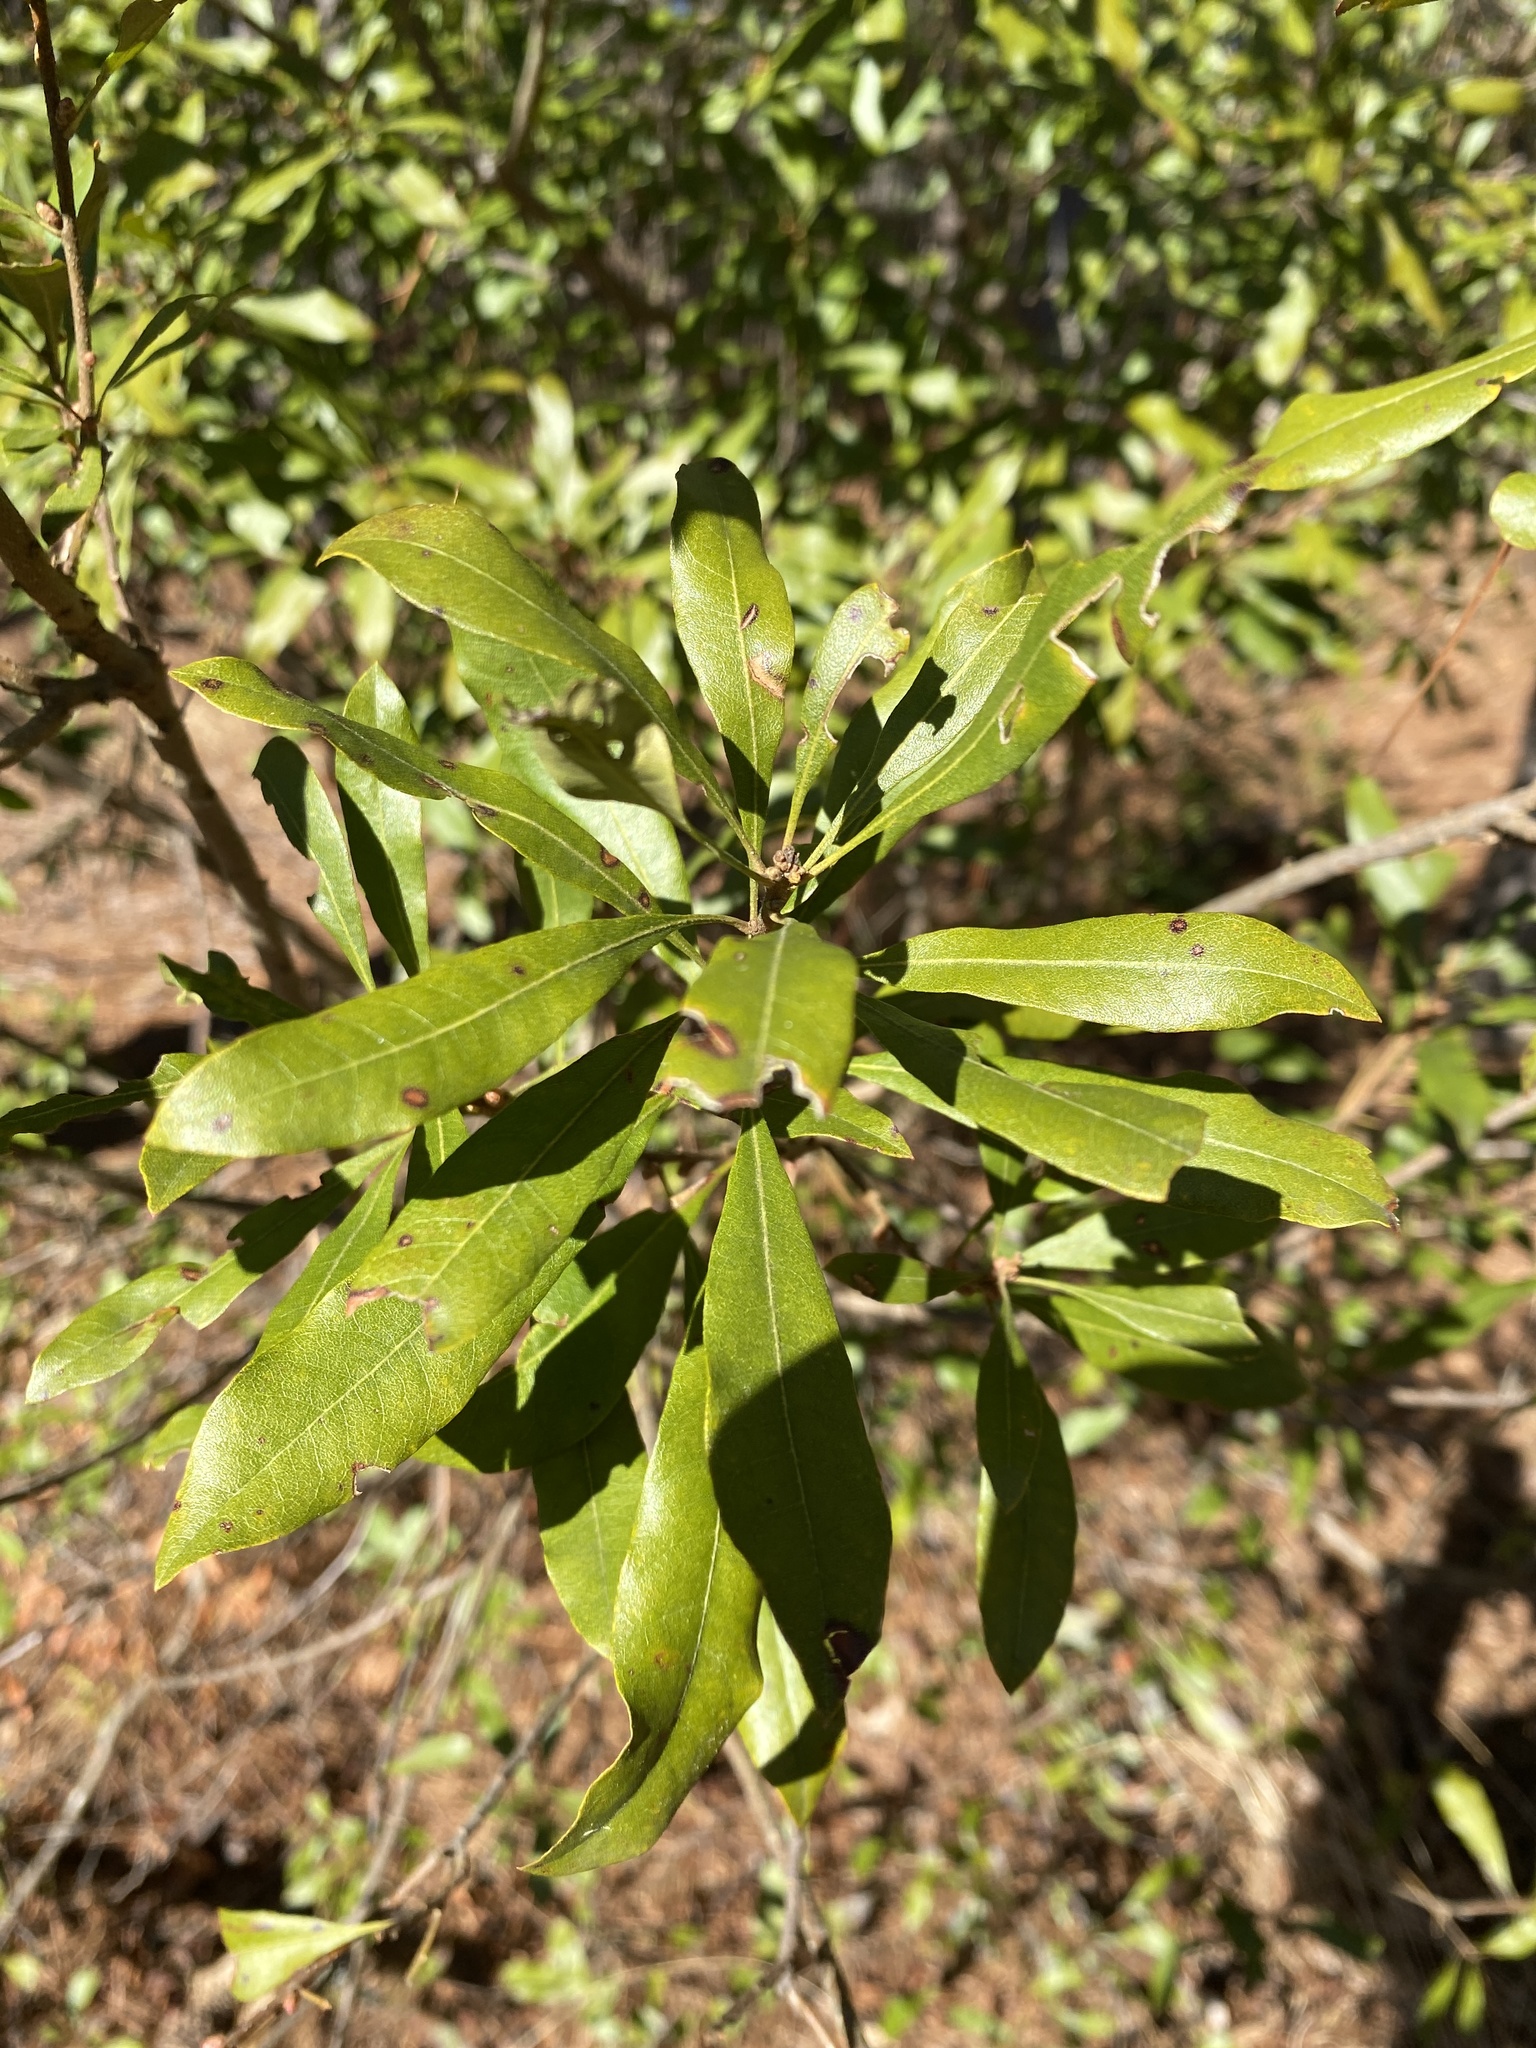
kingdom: Plantae
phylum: Tracheophyta
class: Magnoliopsida
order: Fagales
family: Myricaceae
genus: Morella
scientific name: Morella cerifera
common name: Wax myrtle
